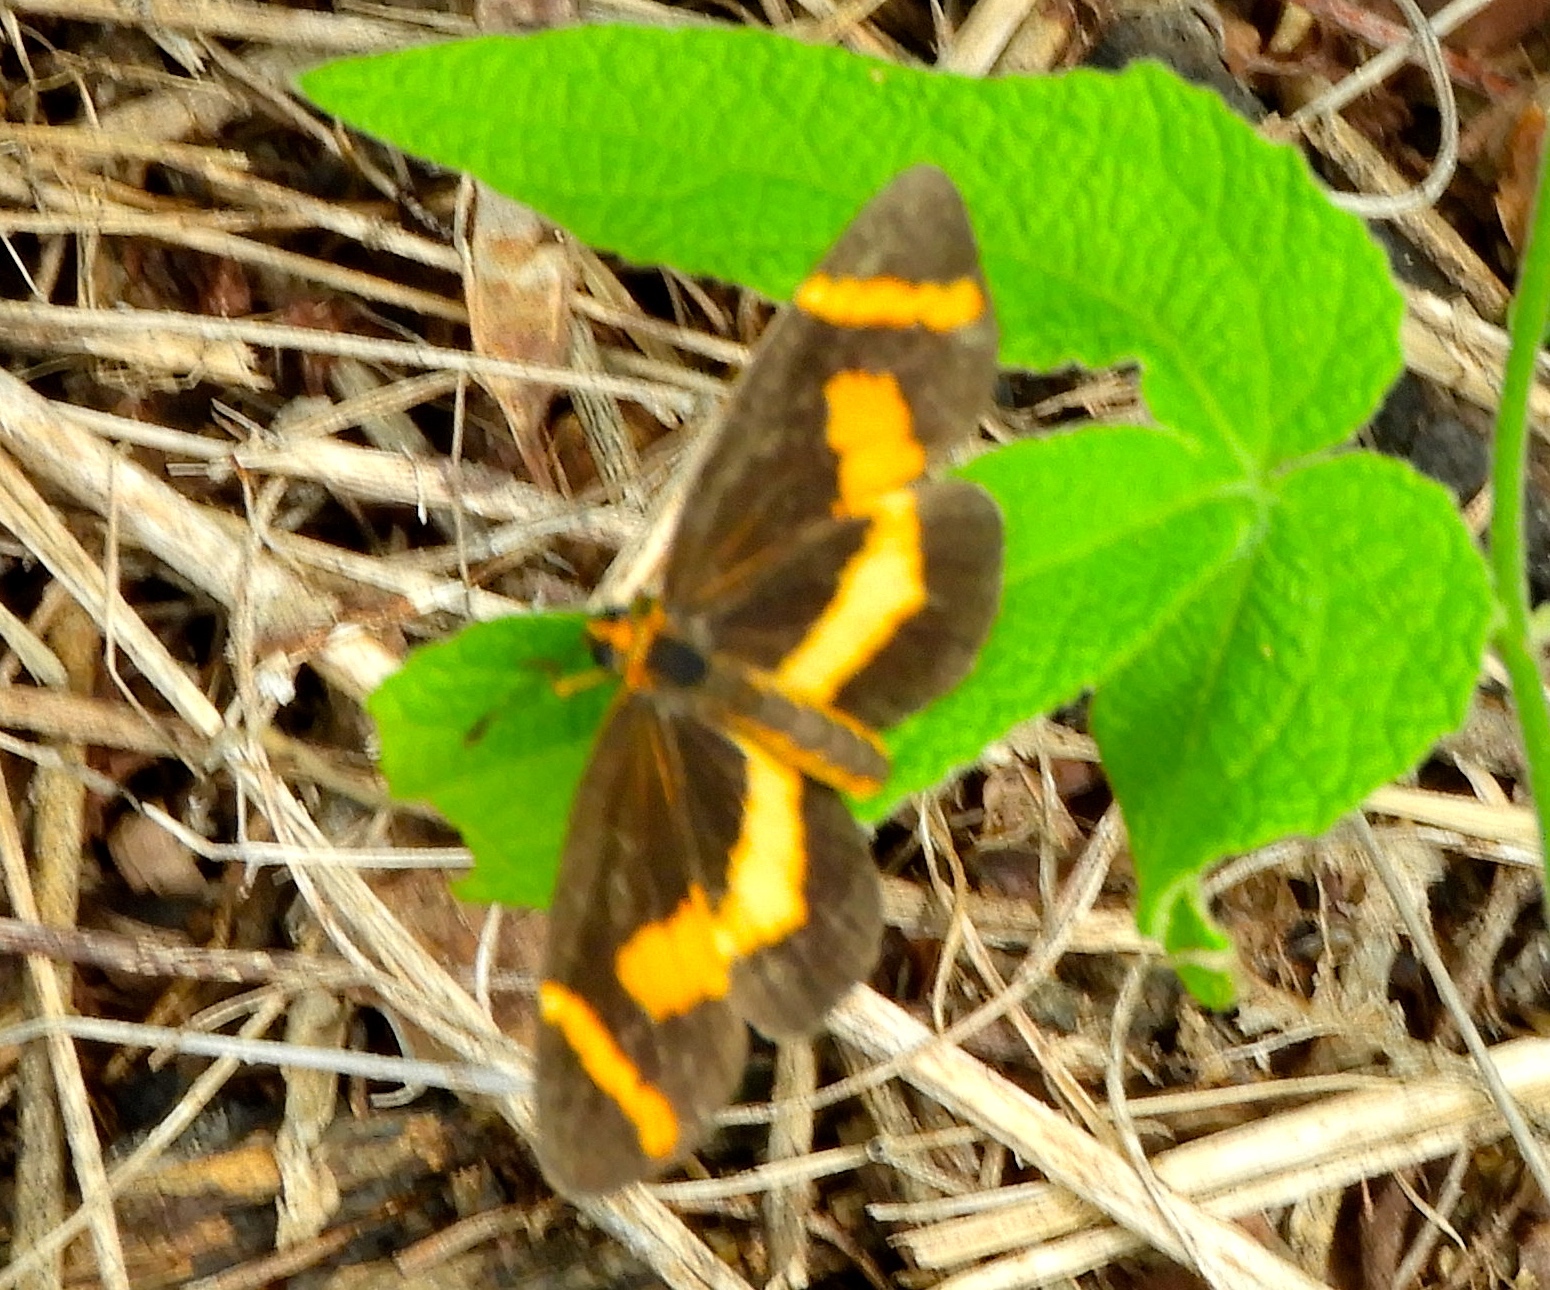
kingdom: Animalia
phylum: Arthropoda
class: Insecta
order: Lepidoptera
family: Nymphalidae
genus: Microtia
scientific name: Microtia elva
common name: Elf
